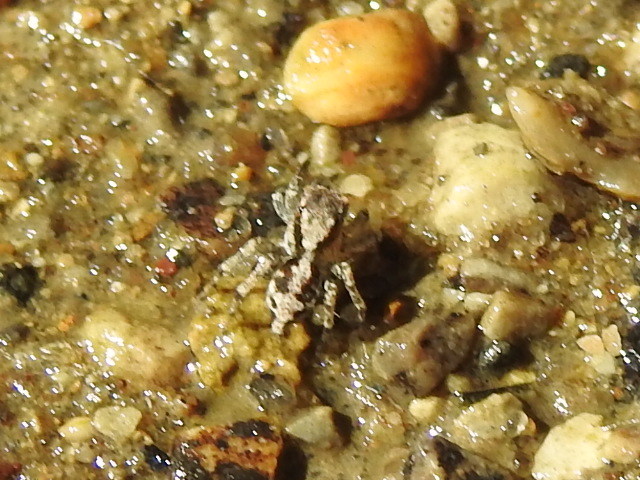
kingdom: Animalia
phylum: Arthropoda
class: Arachnida
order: Araneae
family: Salticidae
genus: Naphrys
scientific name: Naphrys pulex
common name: Flea jumping spider
